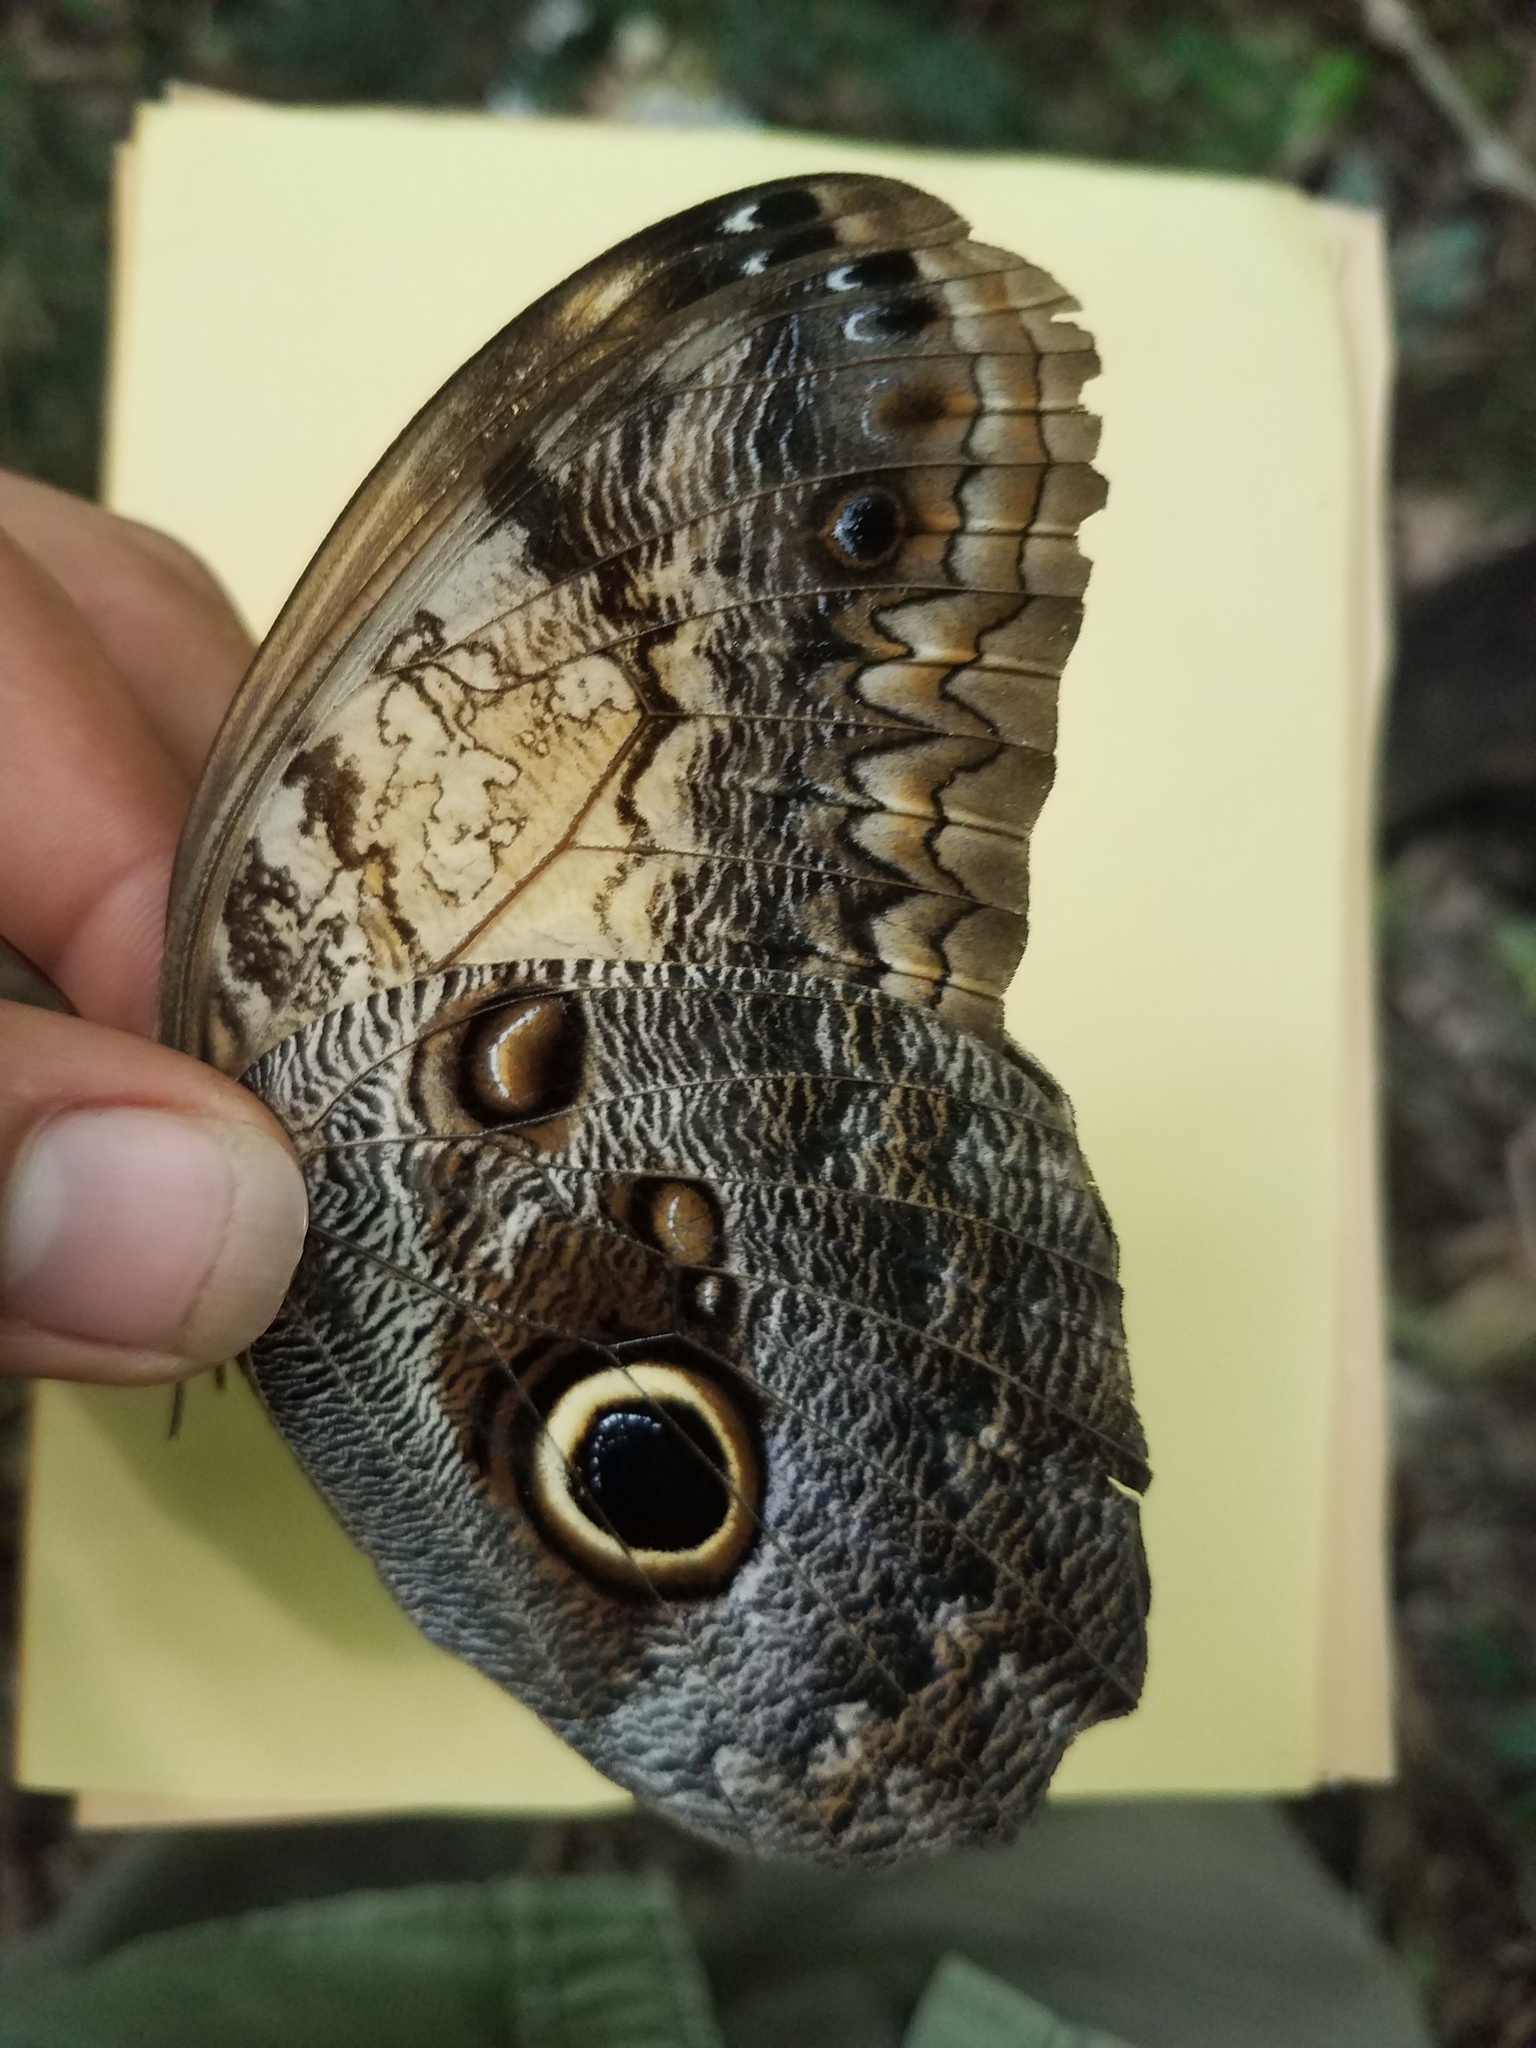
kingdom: Animalia
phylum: Arthropoda
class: Insecta
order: Lepidoptera
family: Nymphalidae
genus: Caligo
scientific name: Caligo telamonius
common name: Pale owl-butterfly
